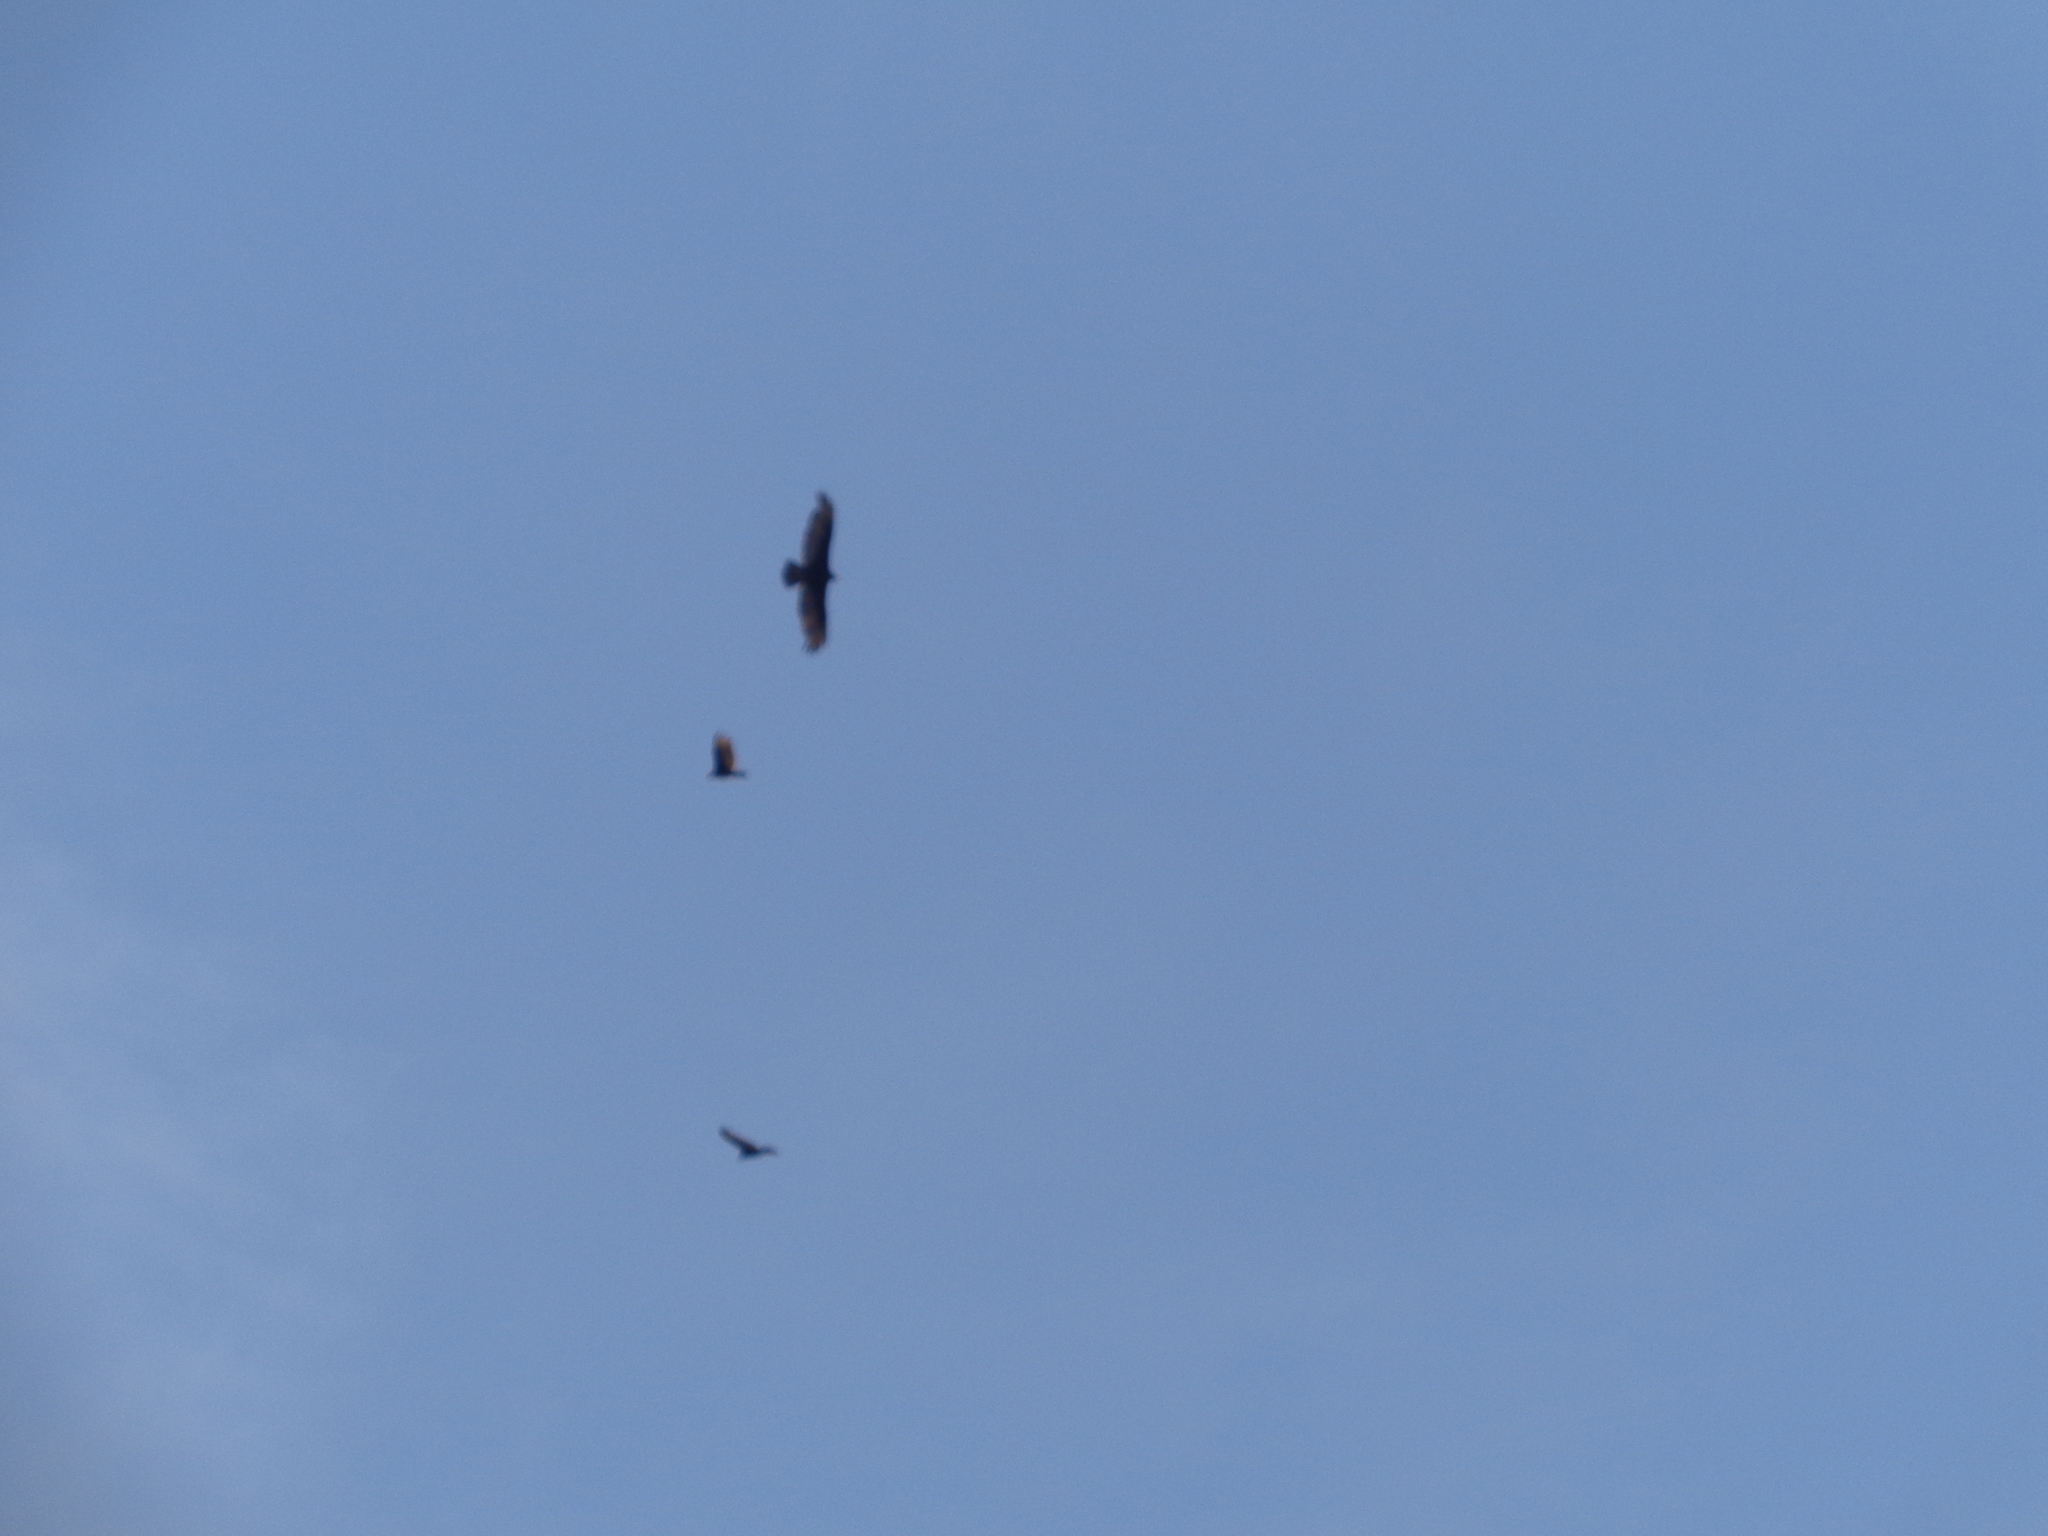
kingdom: Animalia
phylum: Chordata
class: Aves
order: Accipitriformes
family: Cathartidae
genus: Cathartes
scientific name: Cathartes aura
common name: Turkey vulture
